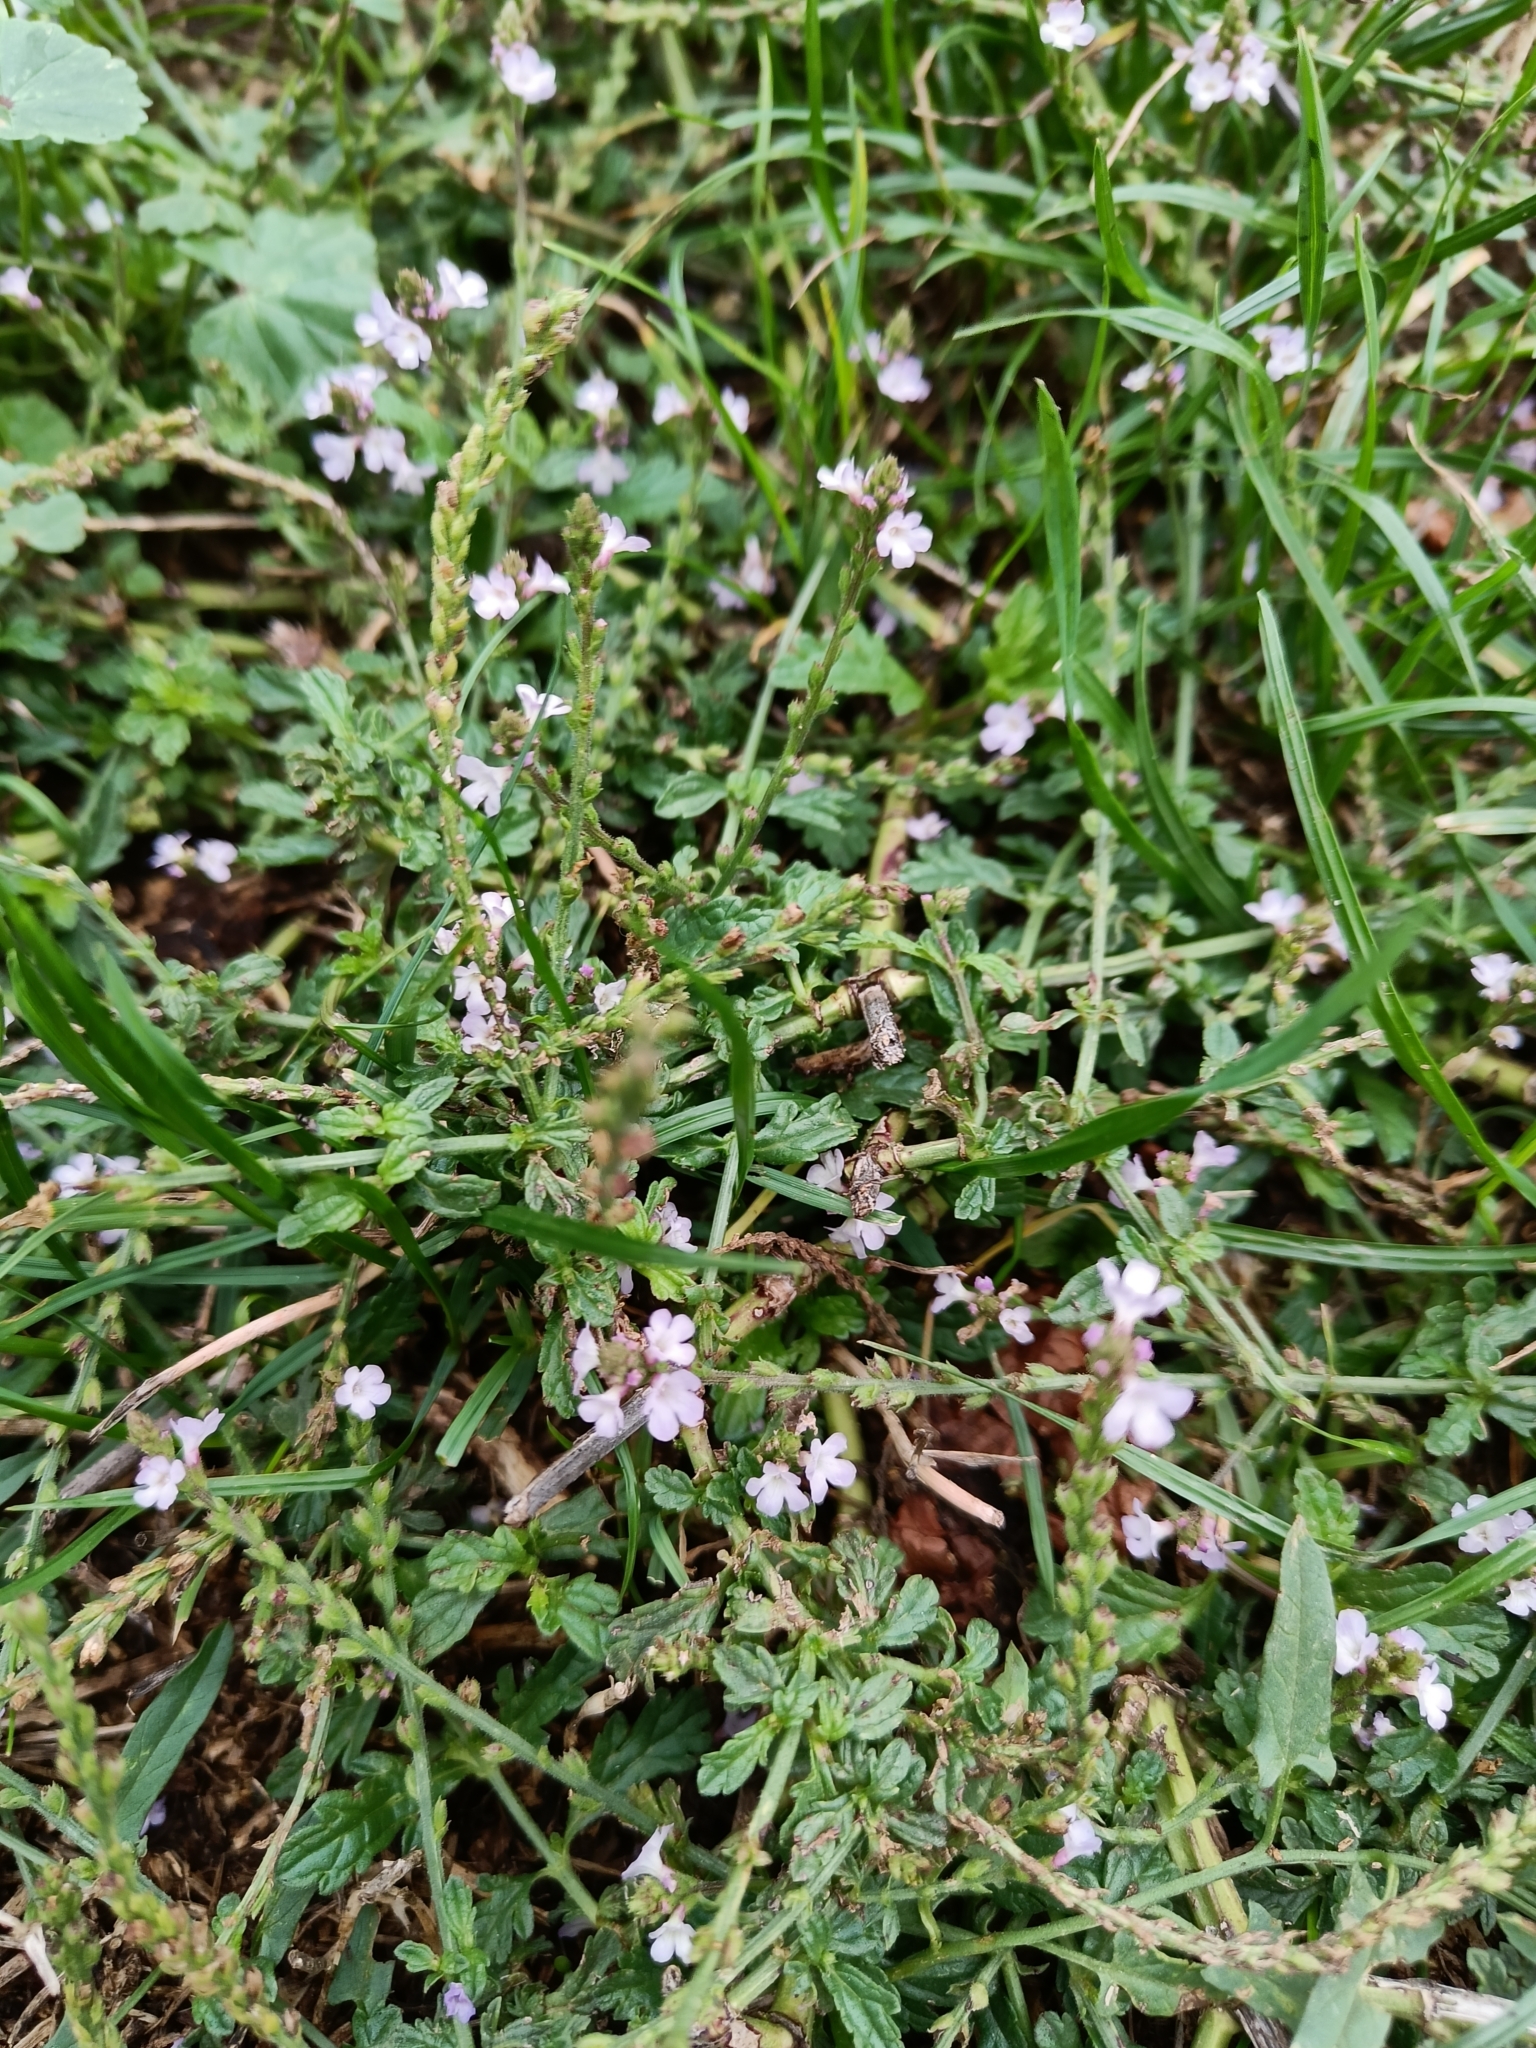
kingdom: Plantae
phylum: Tracheophyta
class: Magnoliopsida
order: Lamiales
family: Verbenaceae
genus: Verbena
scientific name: Verbena officinalis
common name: Vervain
